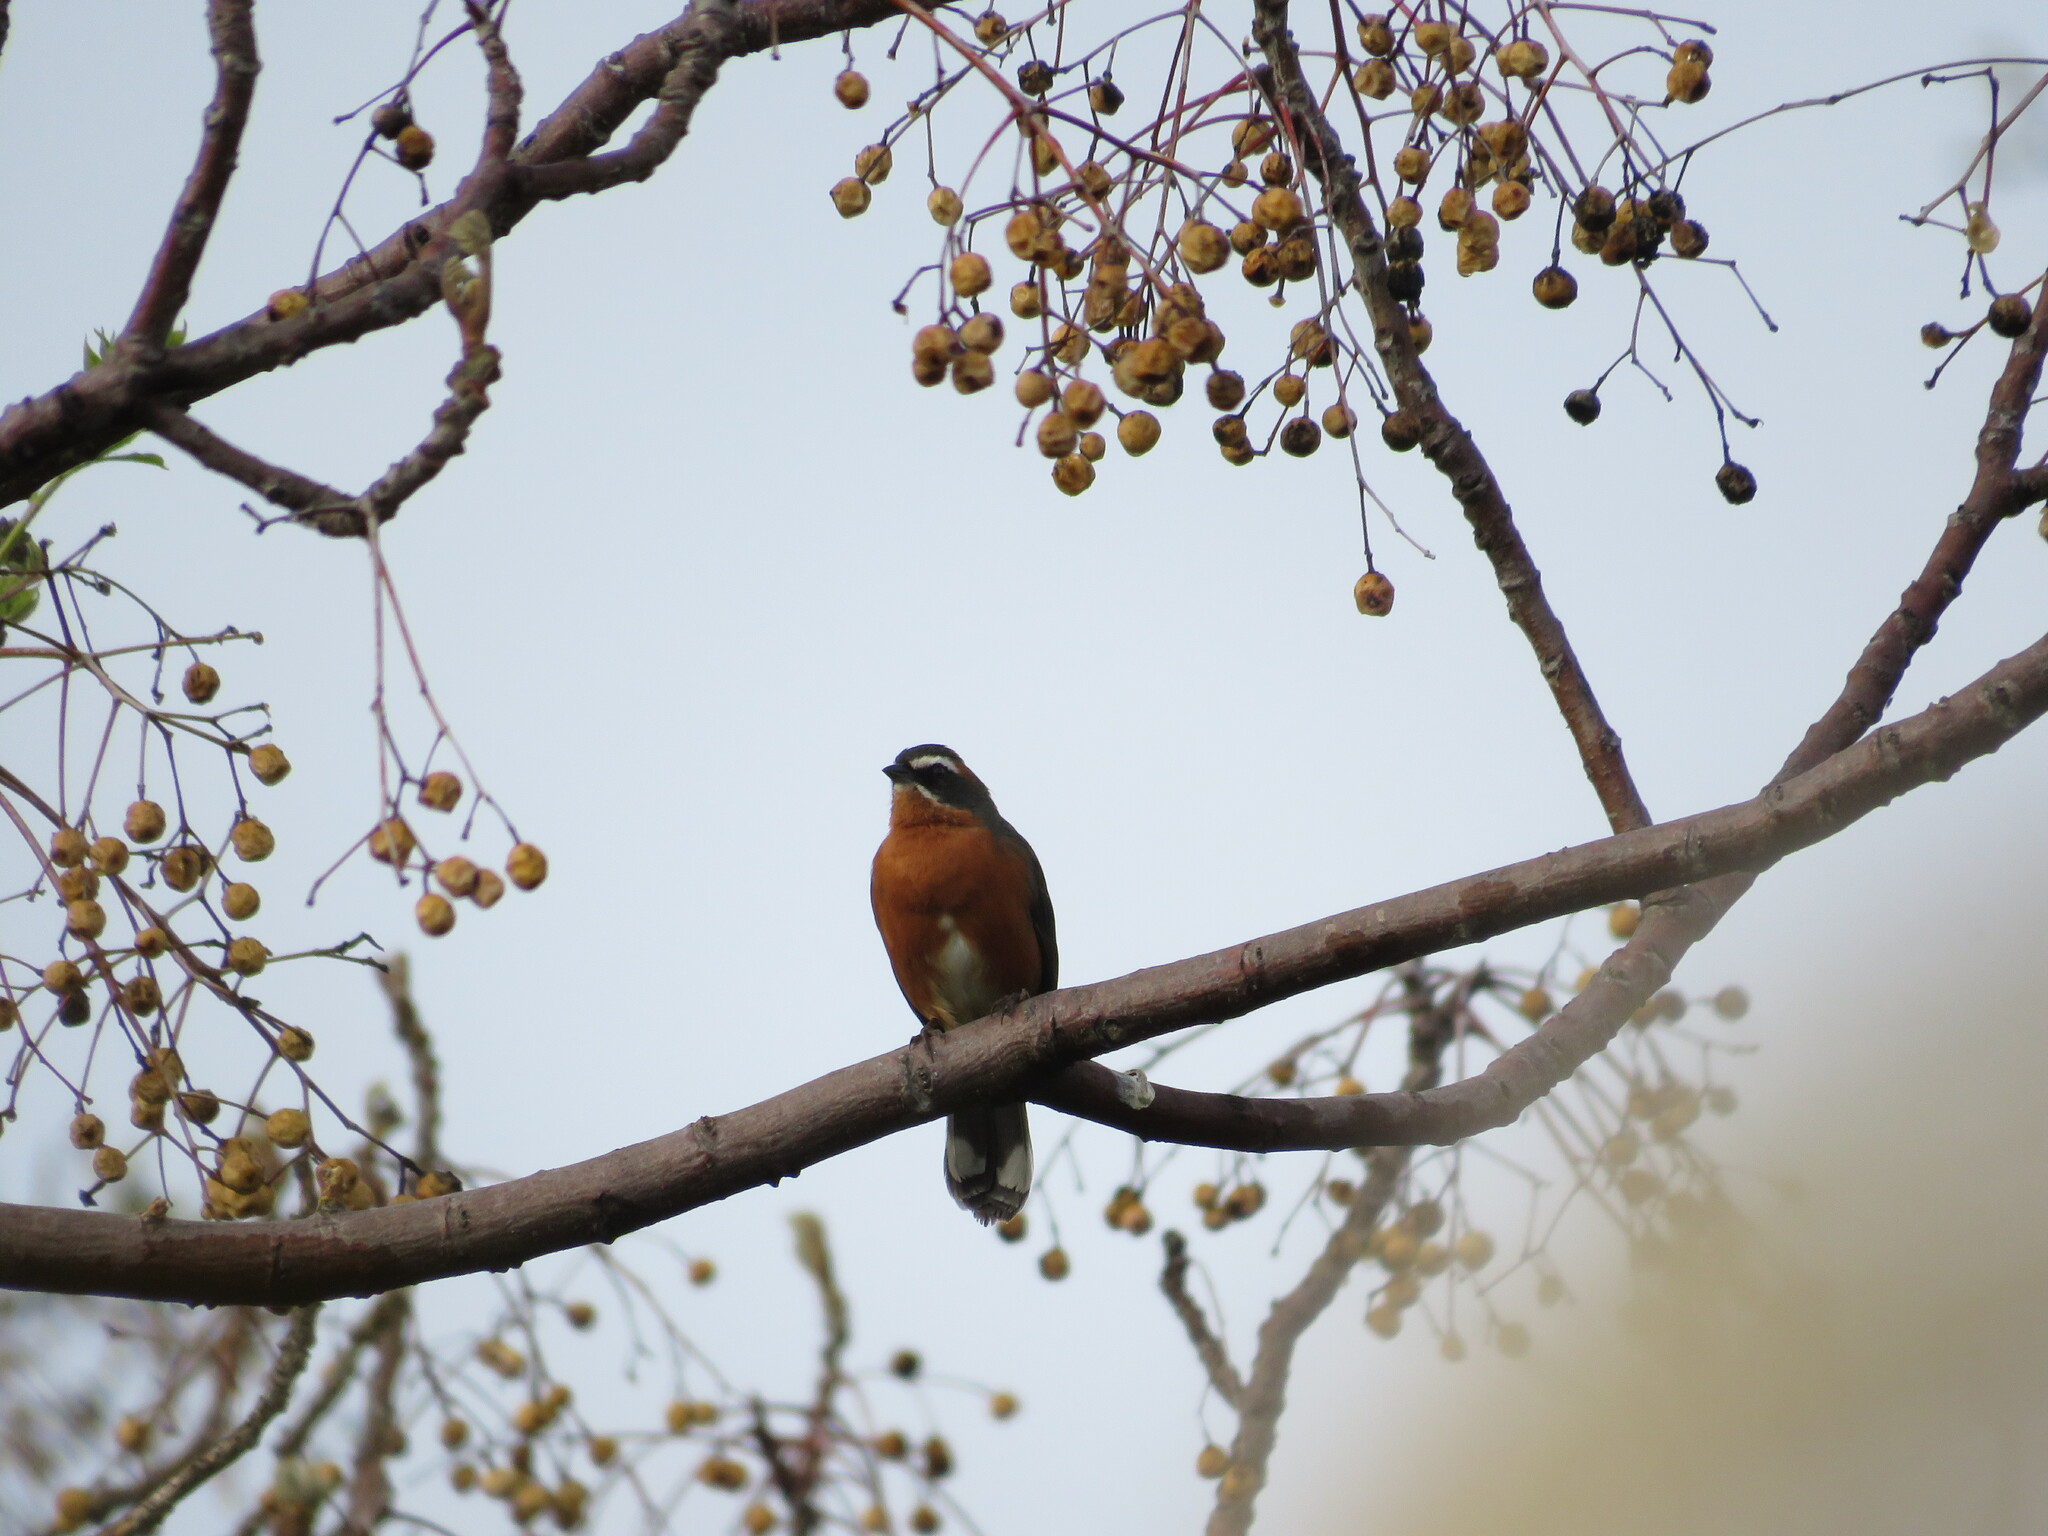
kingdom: Animalia
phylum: Chordata
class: Aves
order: Passeriformes
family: Thraupidae
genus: Poospiza
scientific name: Poospiza nigrorufa
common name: Black-and-rufous warbling finch
